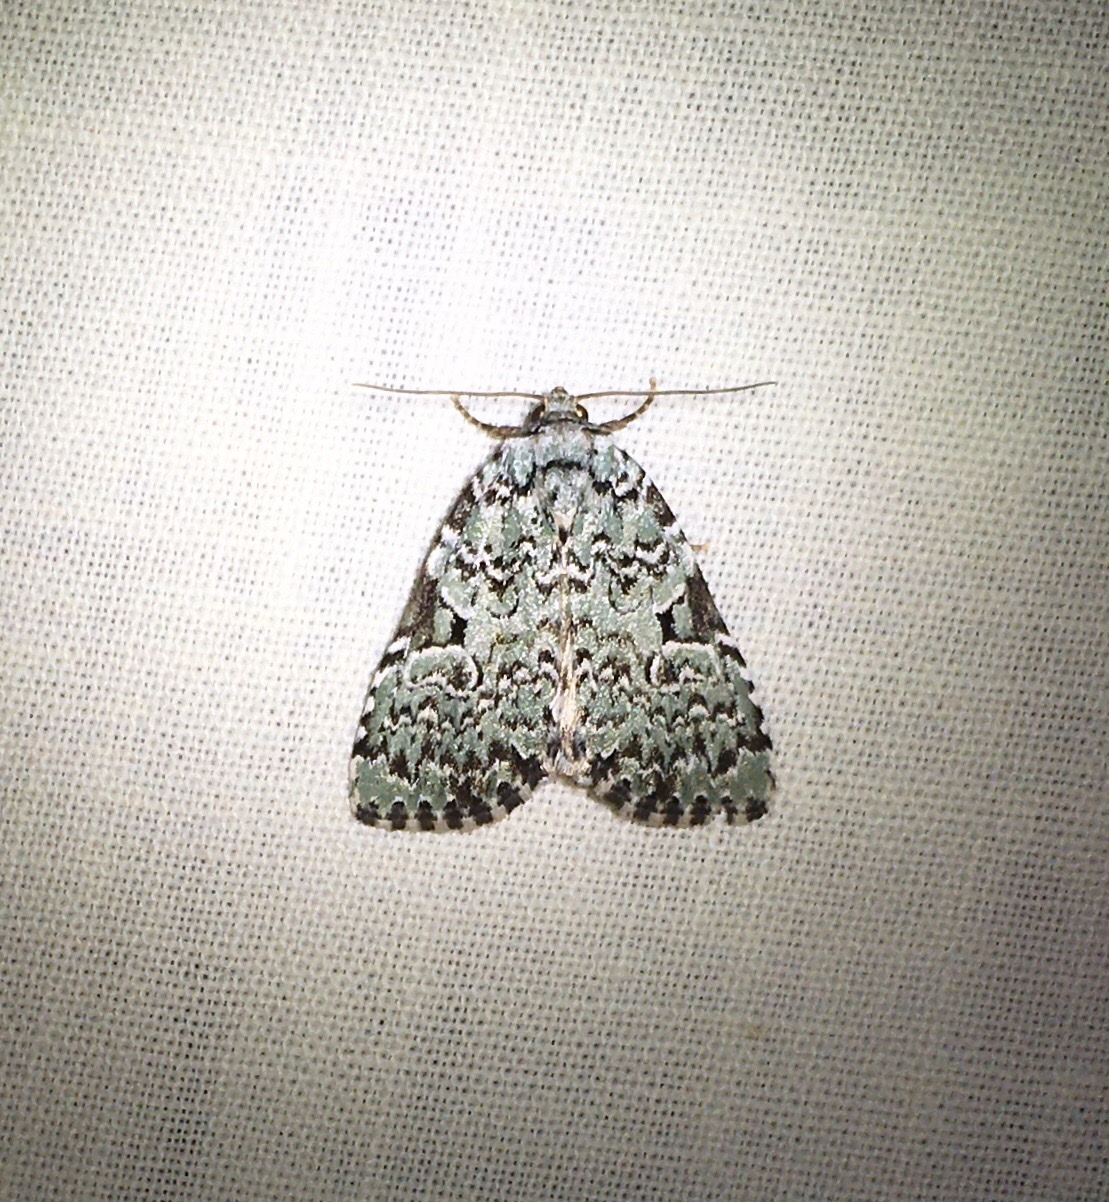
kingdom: Animalia
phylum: Arthropoda
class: Insecta
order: Lepidoptera
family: Noctuidae
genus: Leuconycta
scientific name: Leuconycta diphteroides
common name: Green leuconycta moth
